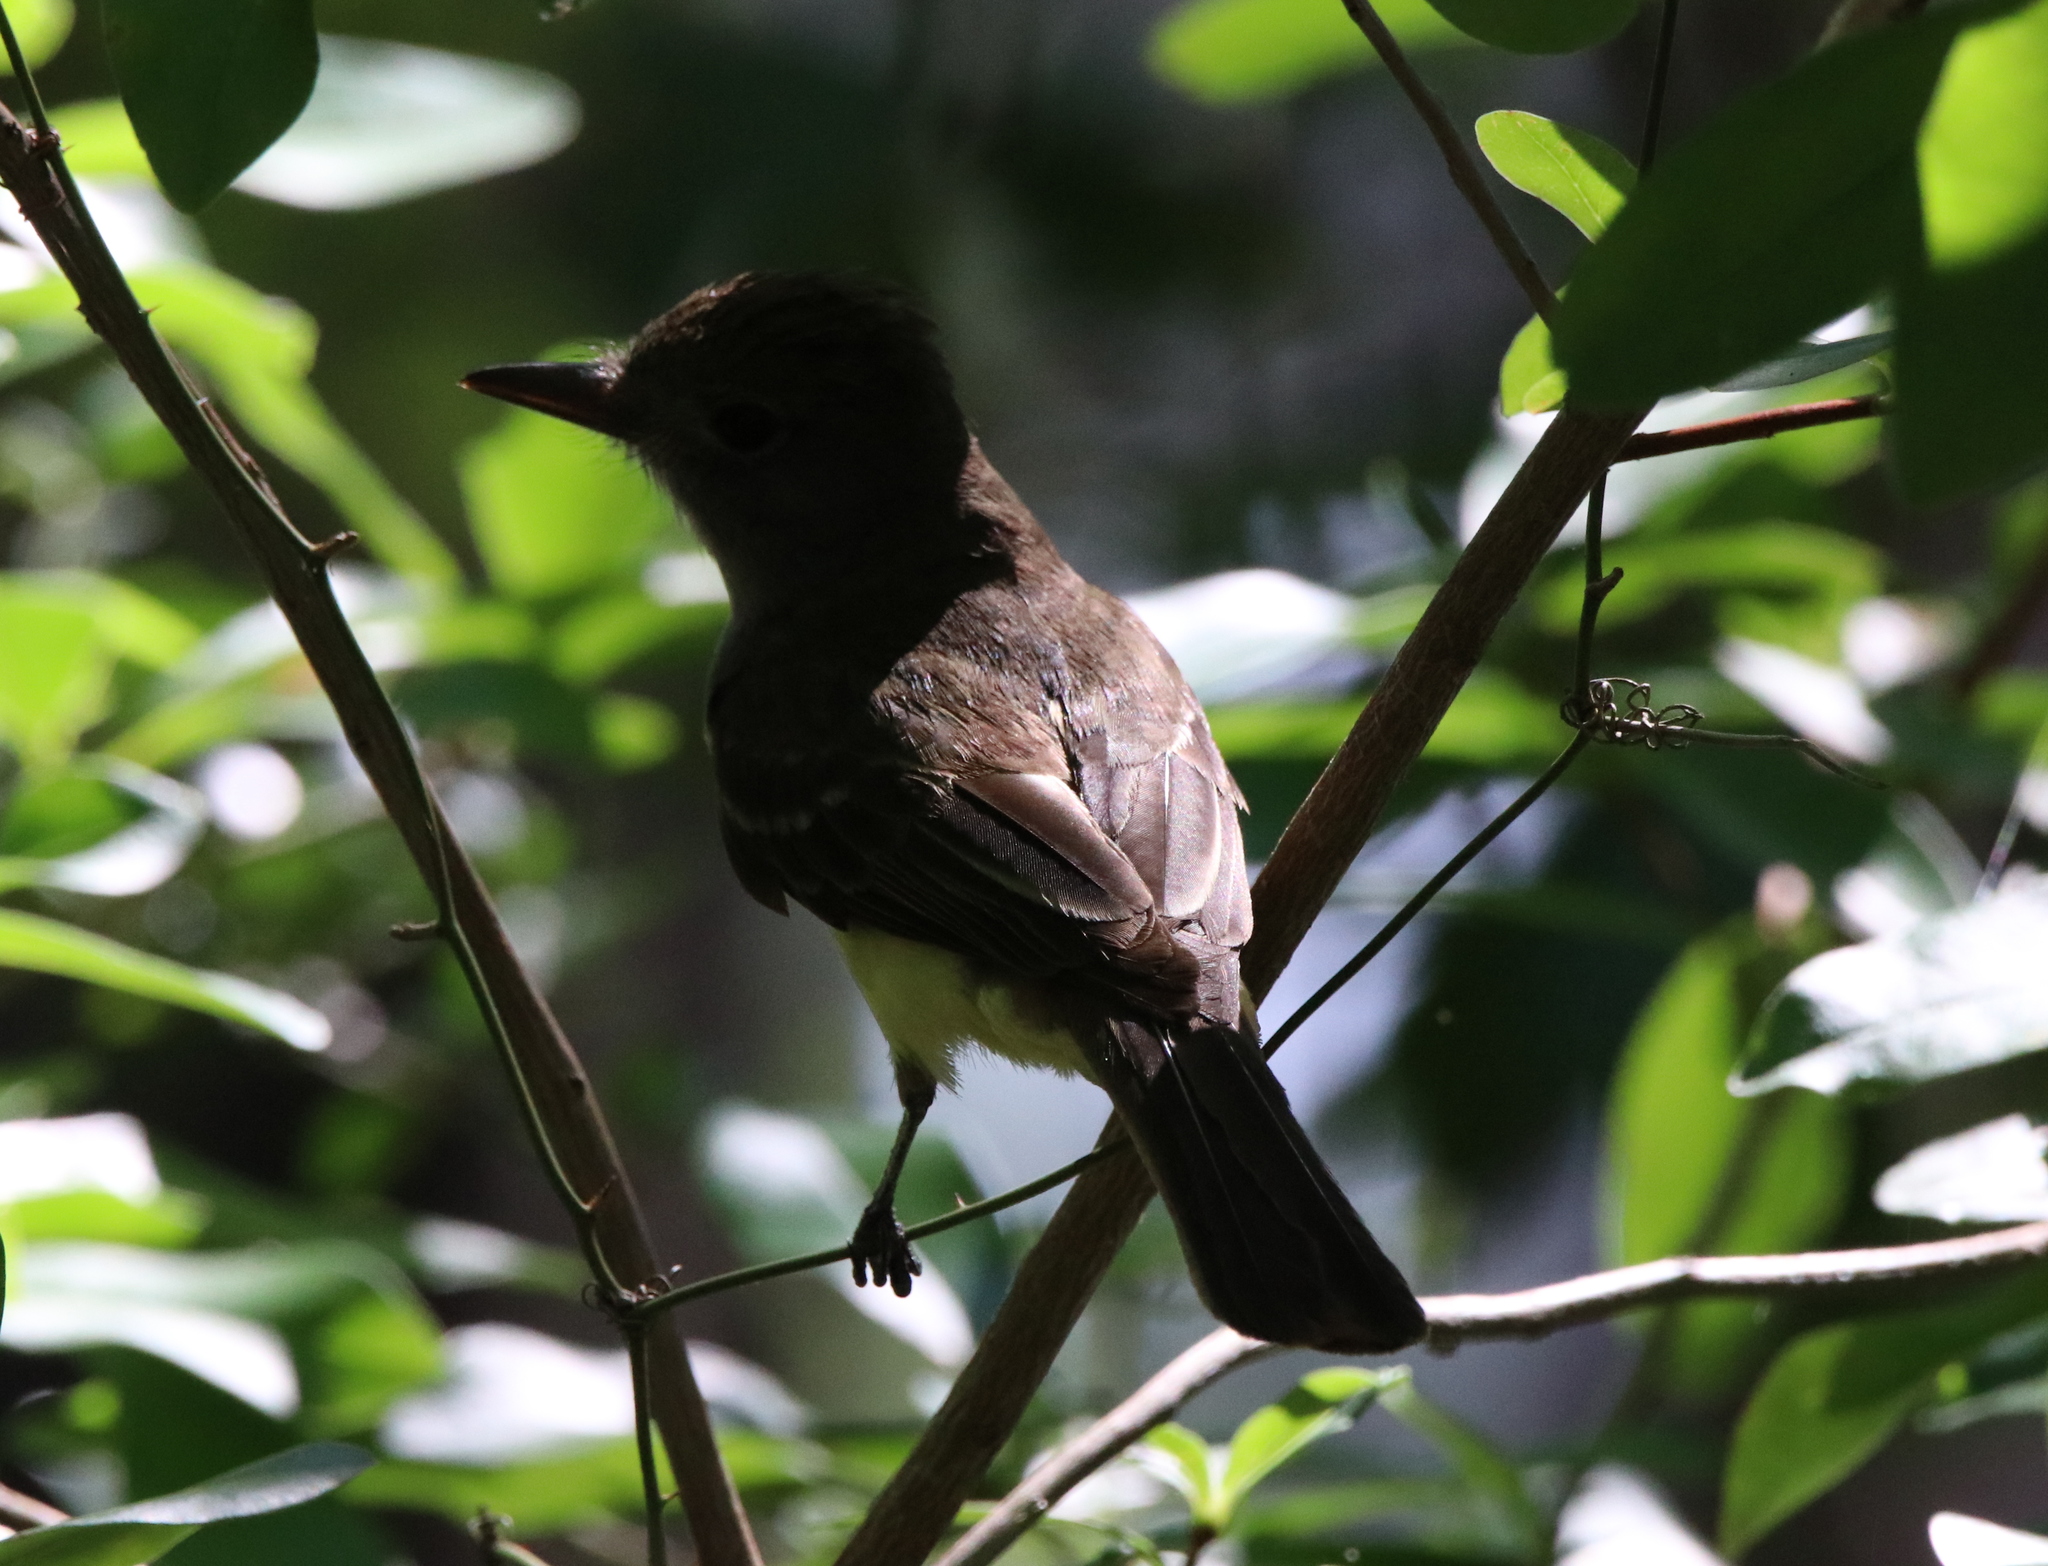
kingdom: Animalia
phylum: Chordata
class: Aves
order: Passeriformes
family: Tyrannidae
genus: Myiarchus
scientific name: Myiarchus crinitus
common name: Great crested flycatcher
